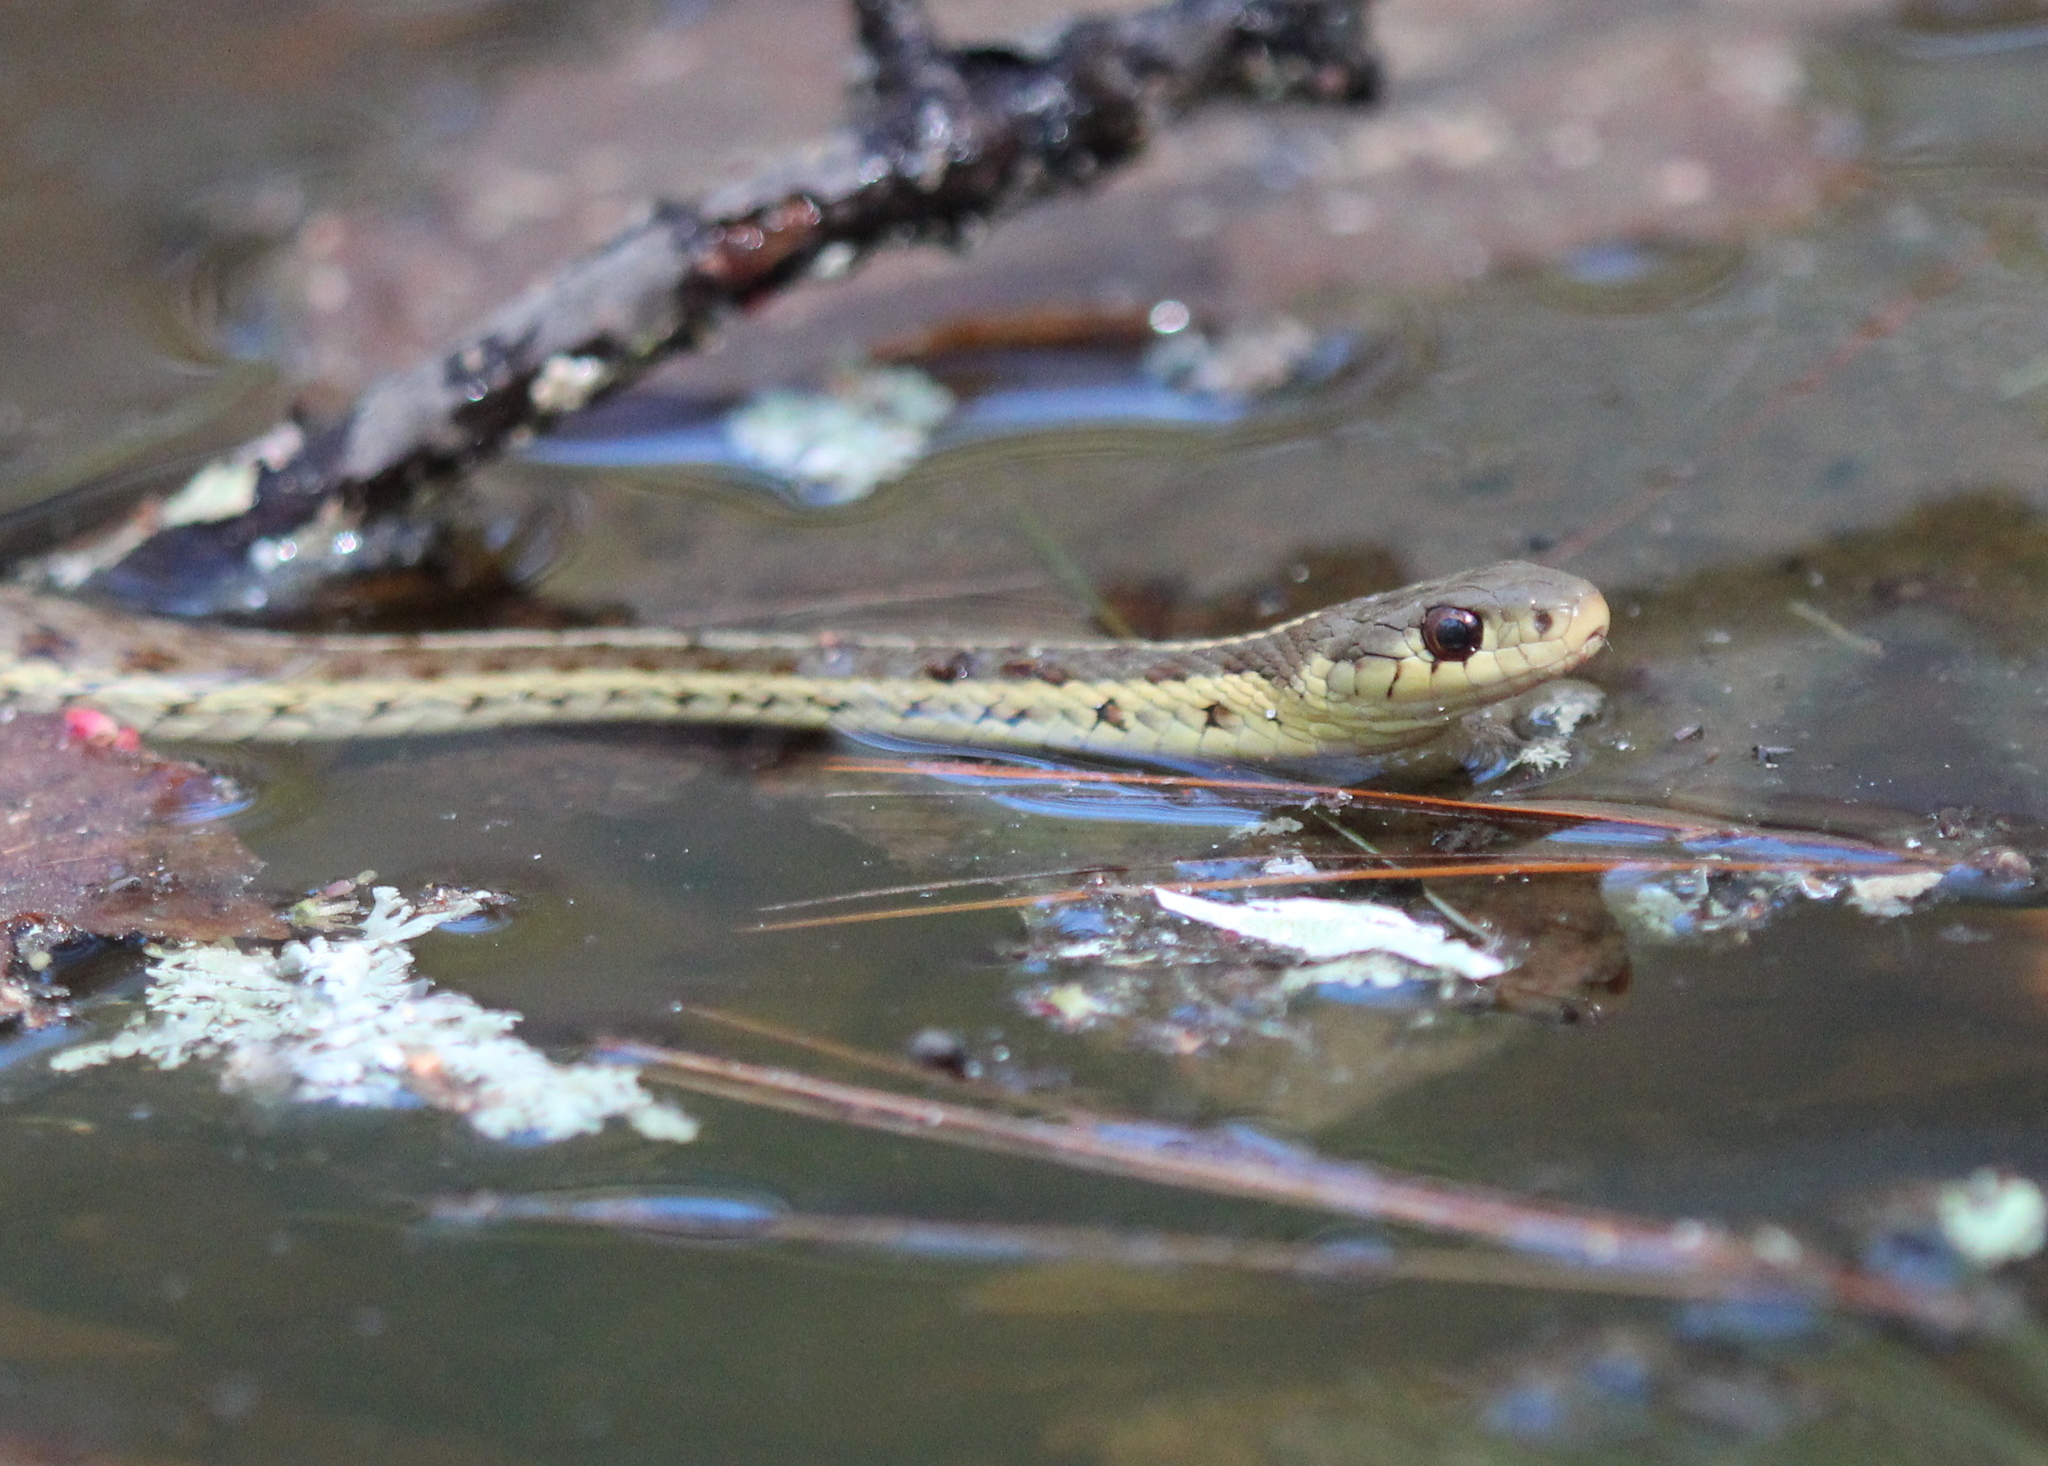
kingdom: Animalia
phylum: Chordata
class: Squamata
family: Colubridae
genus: Thamnophis
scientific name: Thamnophis sirtalis
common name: Common garter snake
